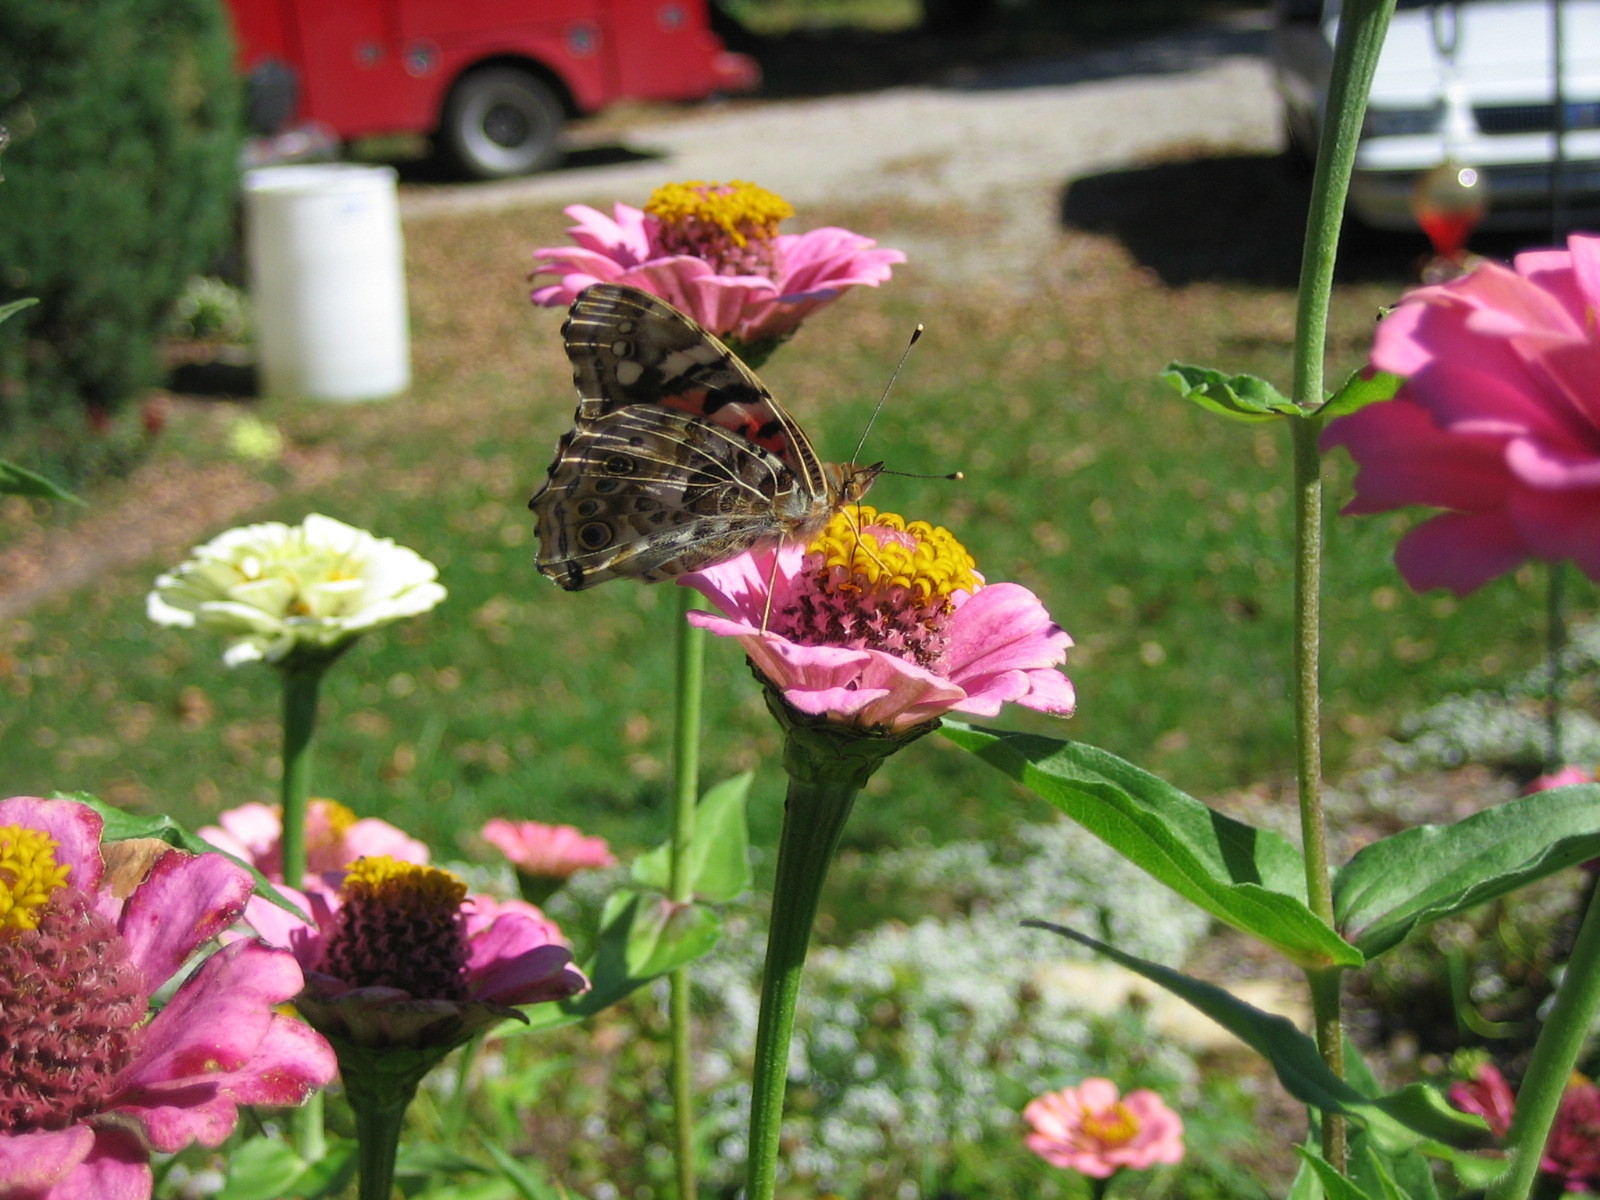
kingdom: Animalia
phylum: Arthropoda
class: Insecta
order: Lepidoptera
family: Nymphalidae
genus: Vanessa
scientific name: Vanessa cardui
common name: Painted lady
